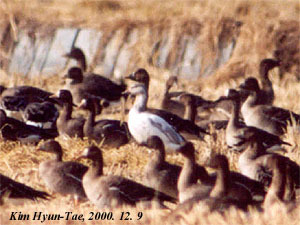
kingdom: Animalia
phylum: Chordata
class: Aves
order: Anseriformes
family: Anatidae
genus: Anser
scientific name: Anser caerulescens
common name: Snow goose
